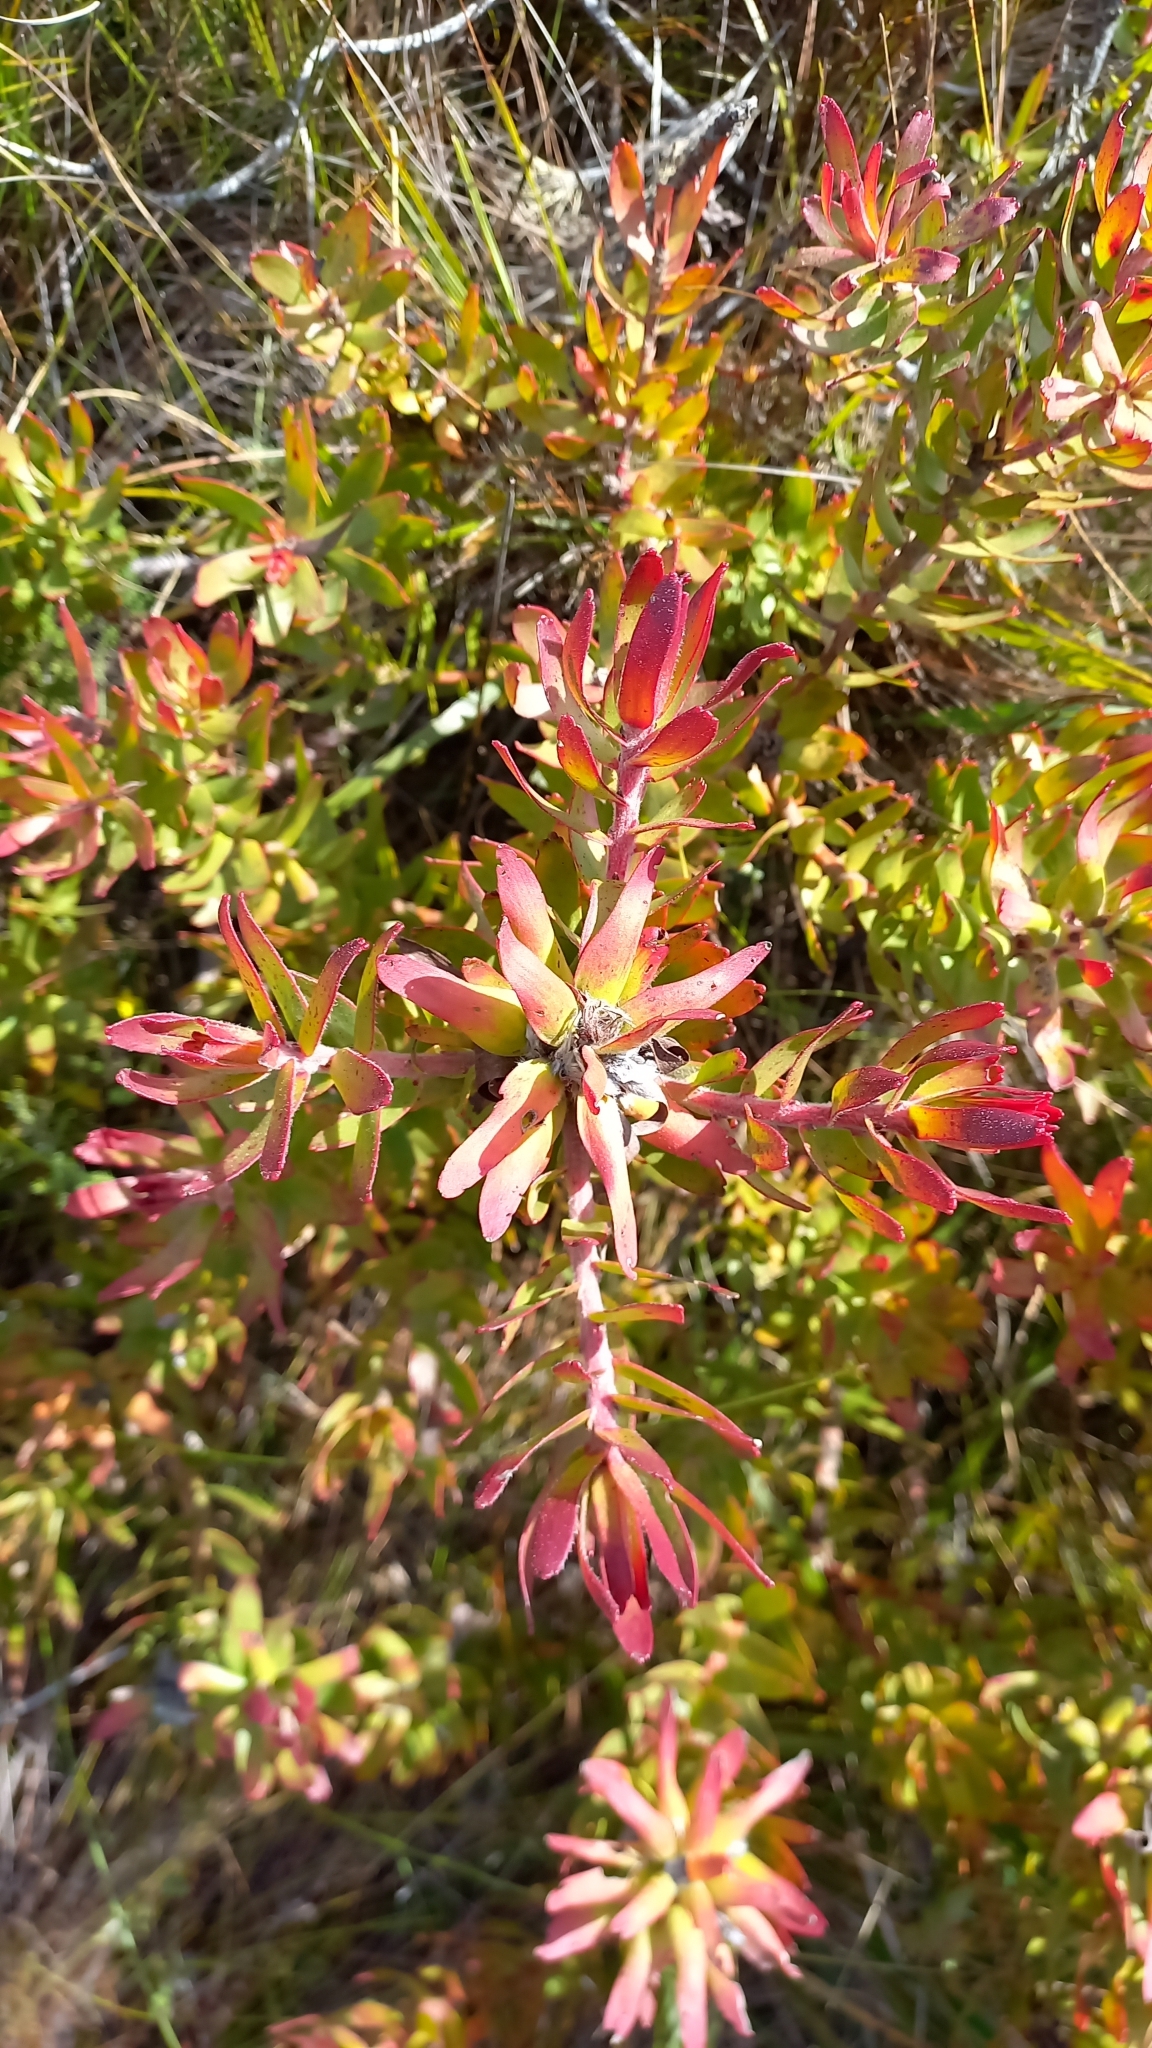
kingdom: Plantae
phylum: Tracheophyta
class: Magnoliopsida
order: Proteales
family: Proteaceae
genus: Mimetes
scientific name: Mimetes cucullatus
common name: Common pagoda
